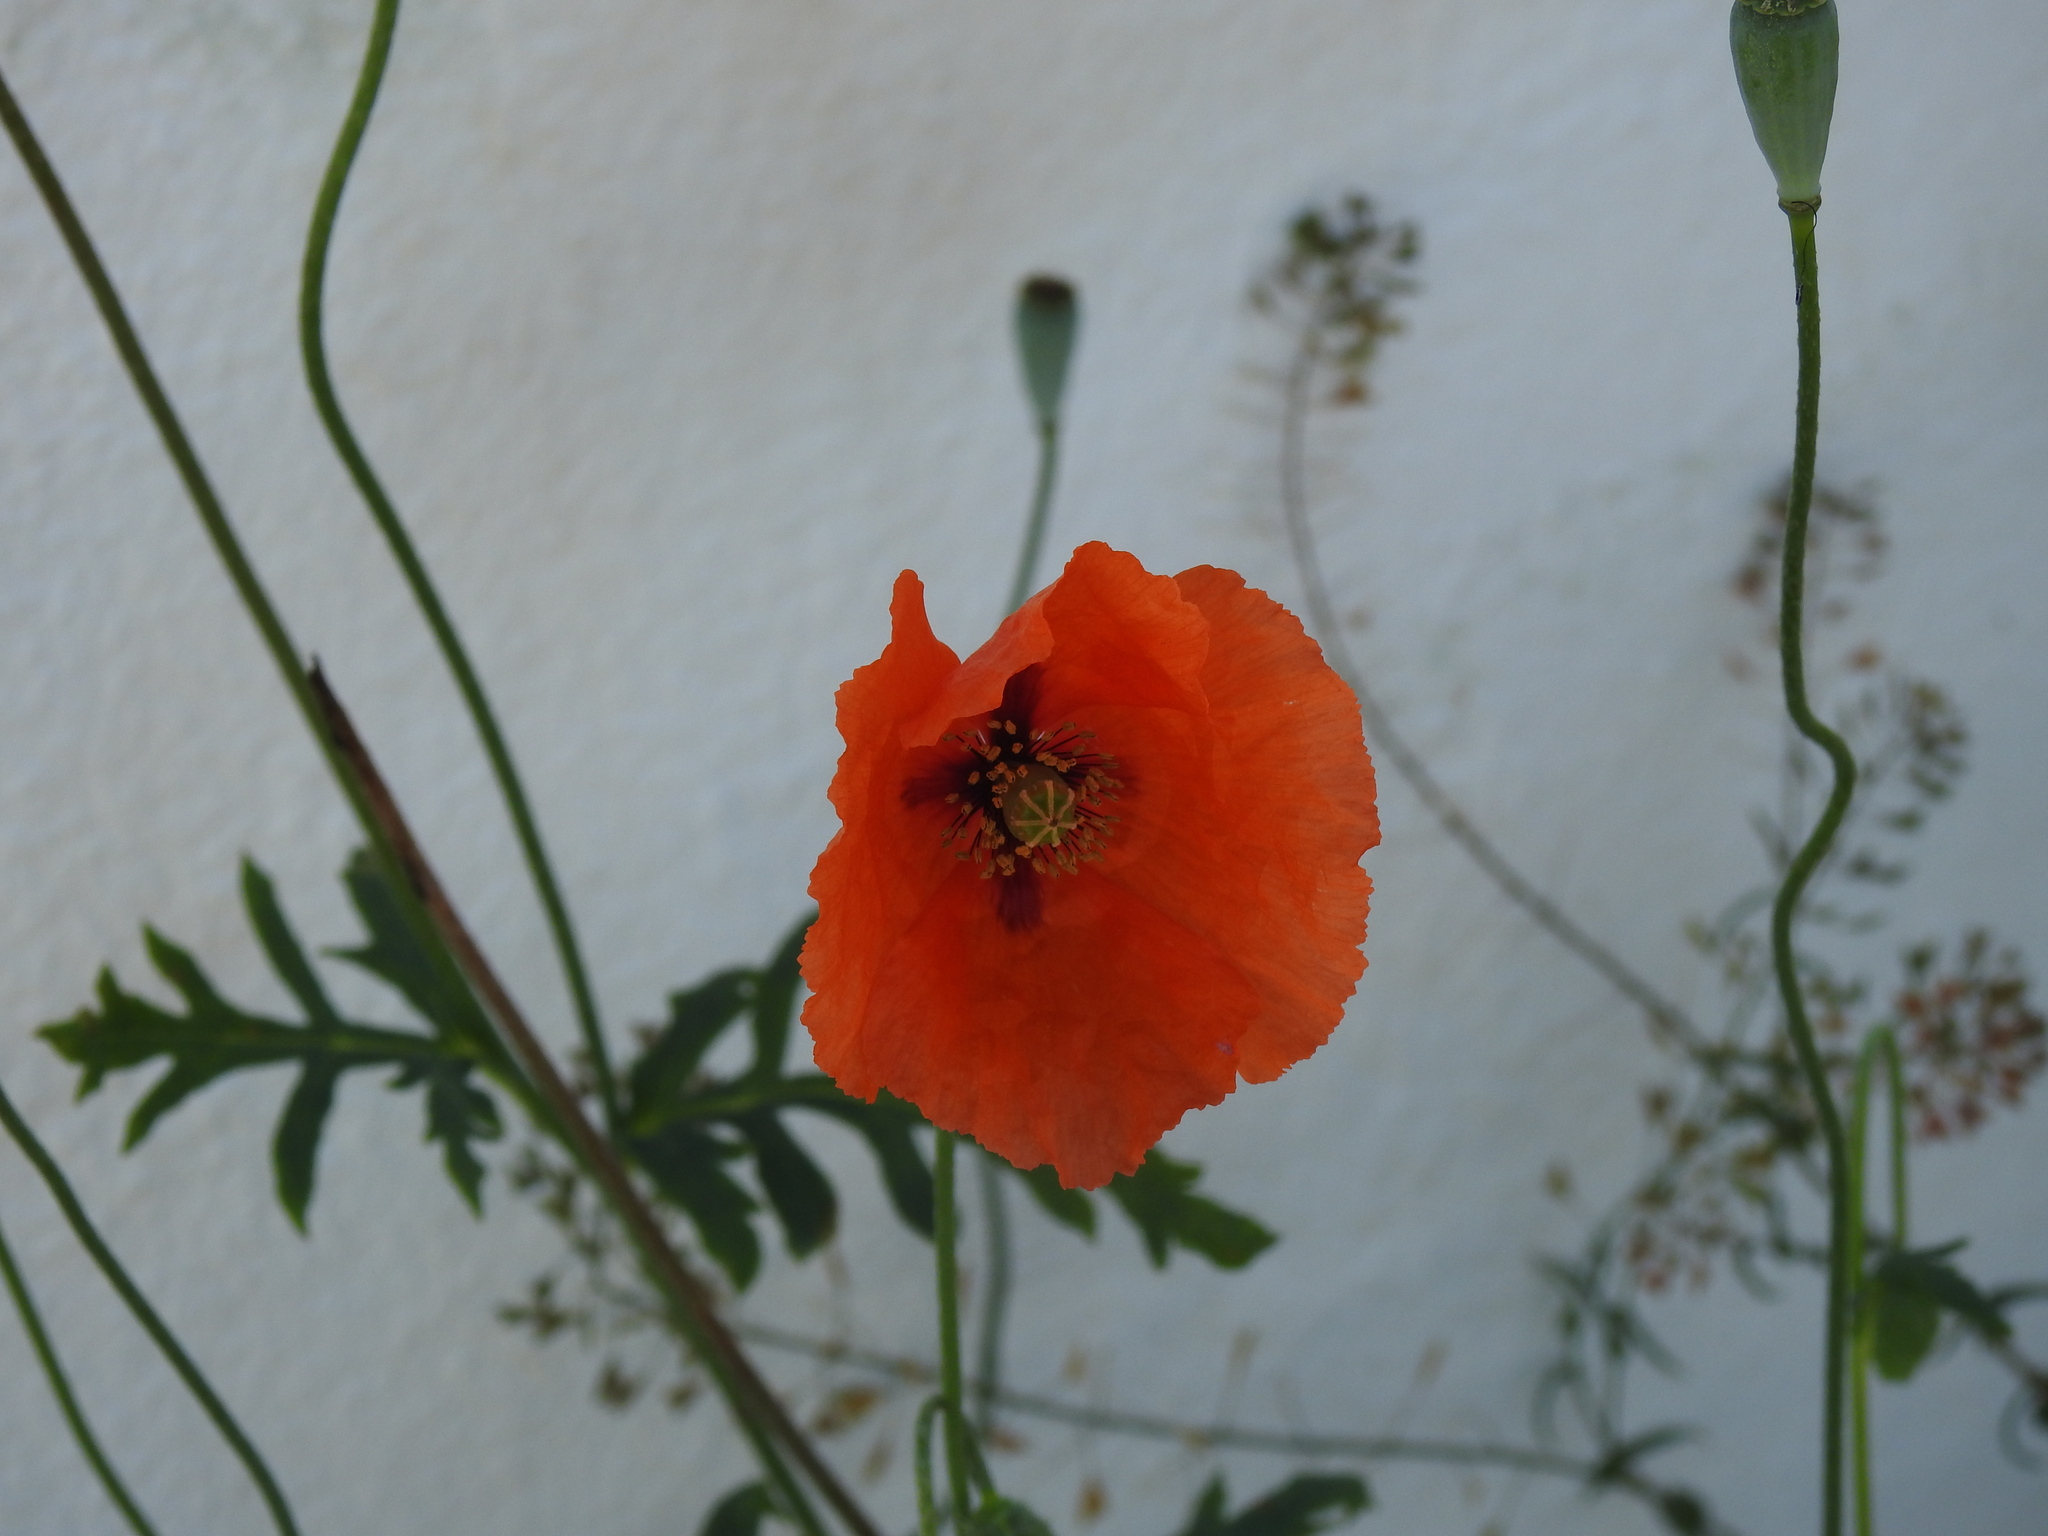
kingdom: Plantae
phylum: Tracheophyta
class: Magnoliopsida
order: Ranunculales
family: Papaveraceae
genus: Papaver
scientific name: Papaver dubium
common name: Long-headed poppy
